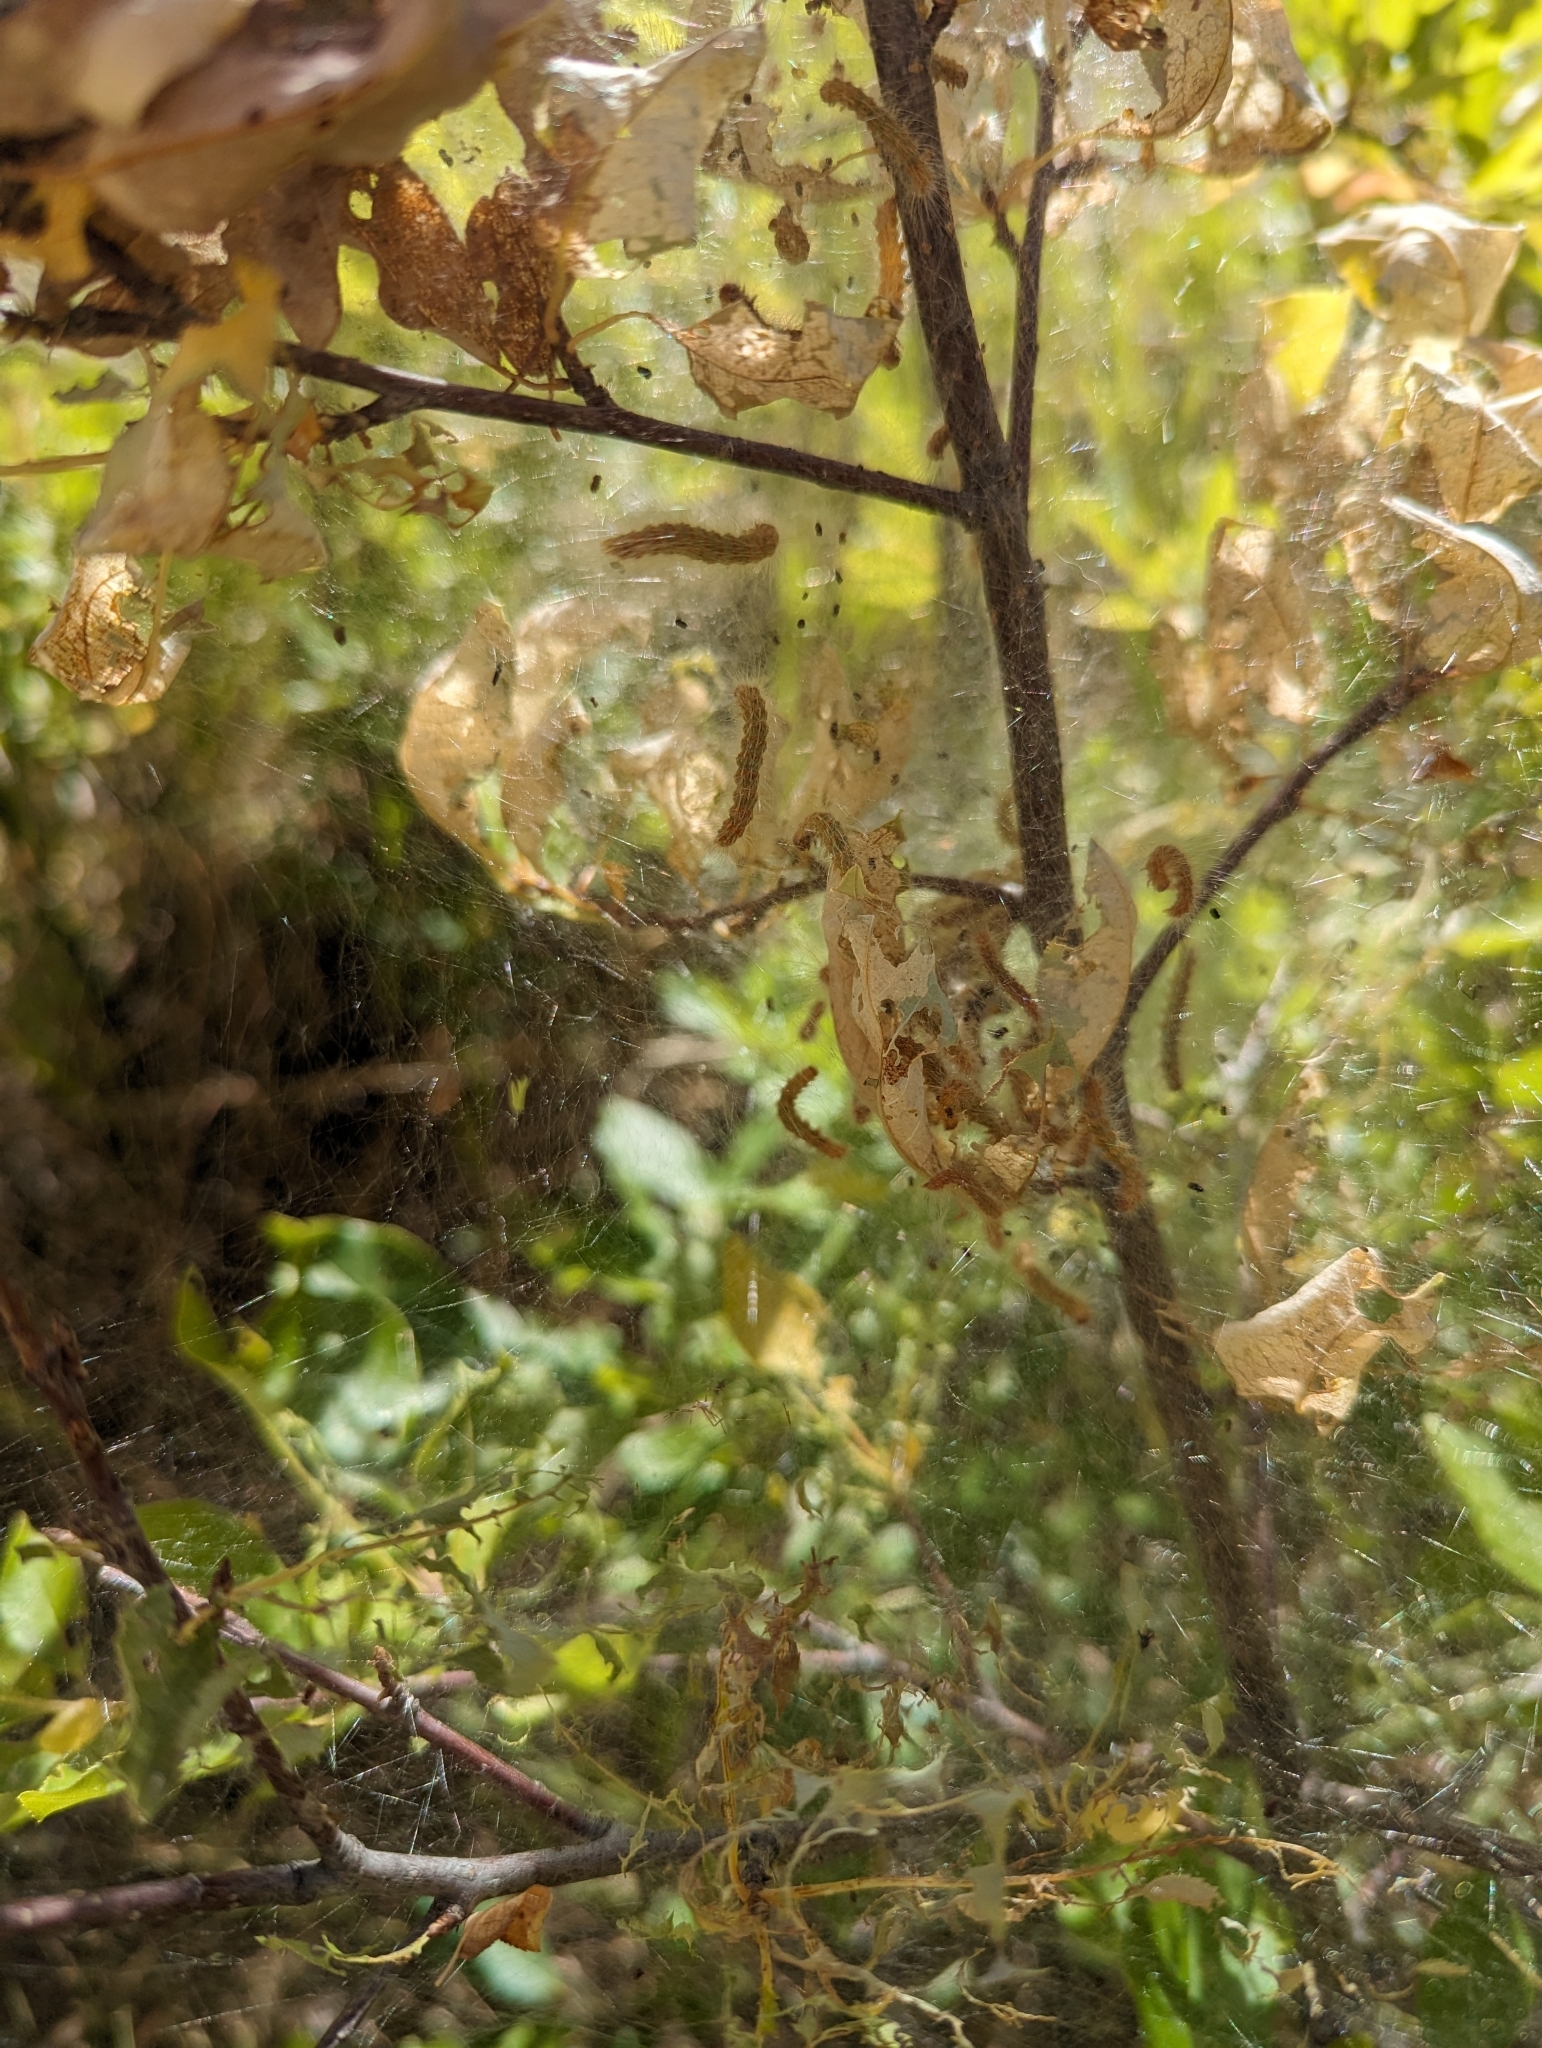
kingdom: Animalia
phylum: Arthropoda
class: Insecta
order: Lepidoptera
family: Erebidae
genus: Hyphantria
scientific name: Hyphantria cunea
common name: American white moth
